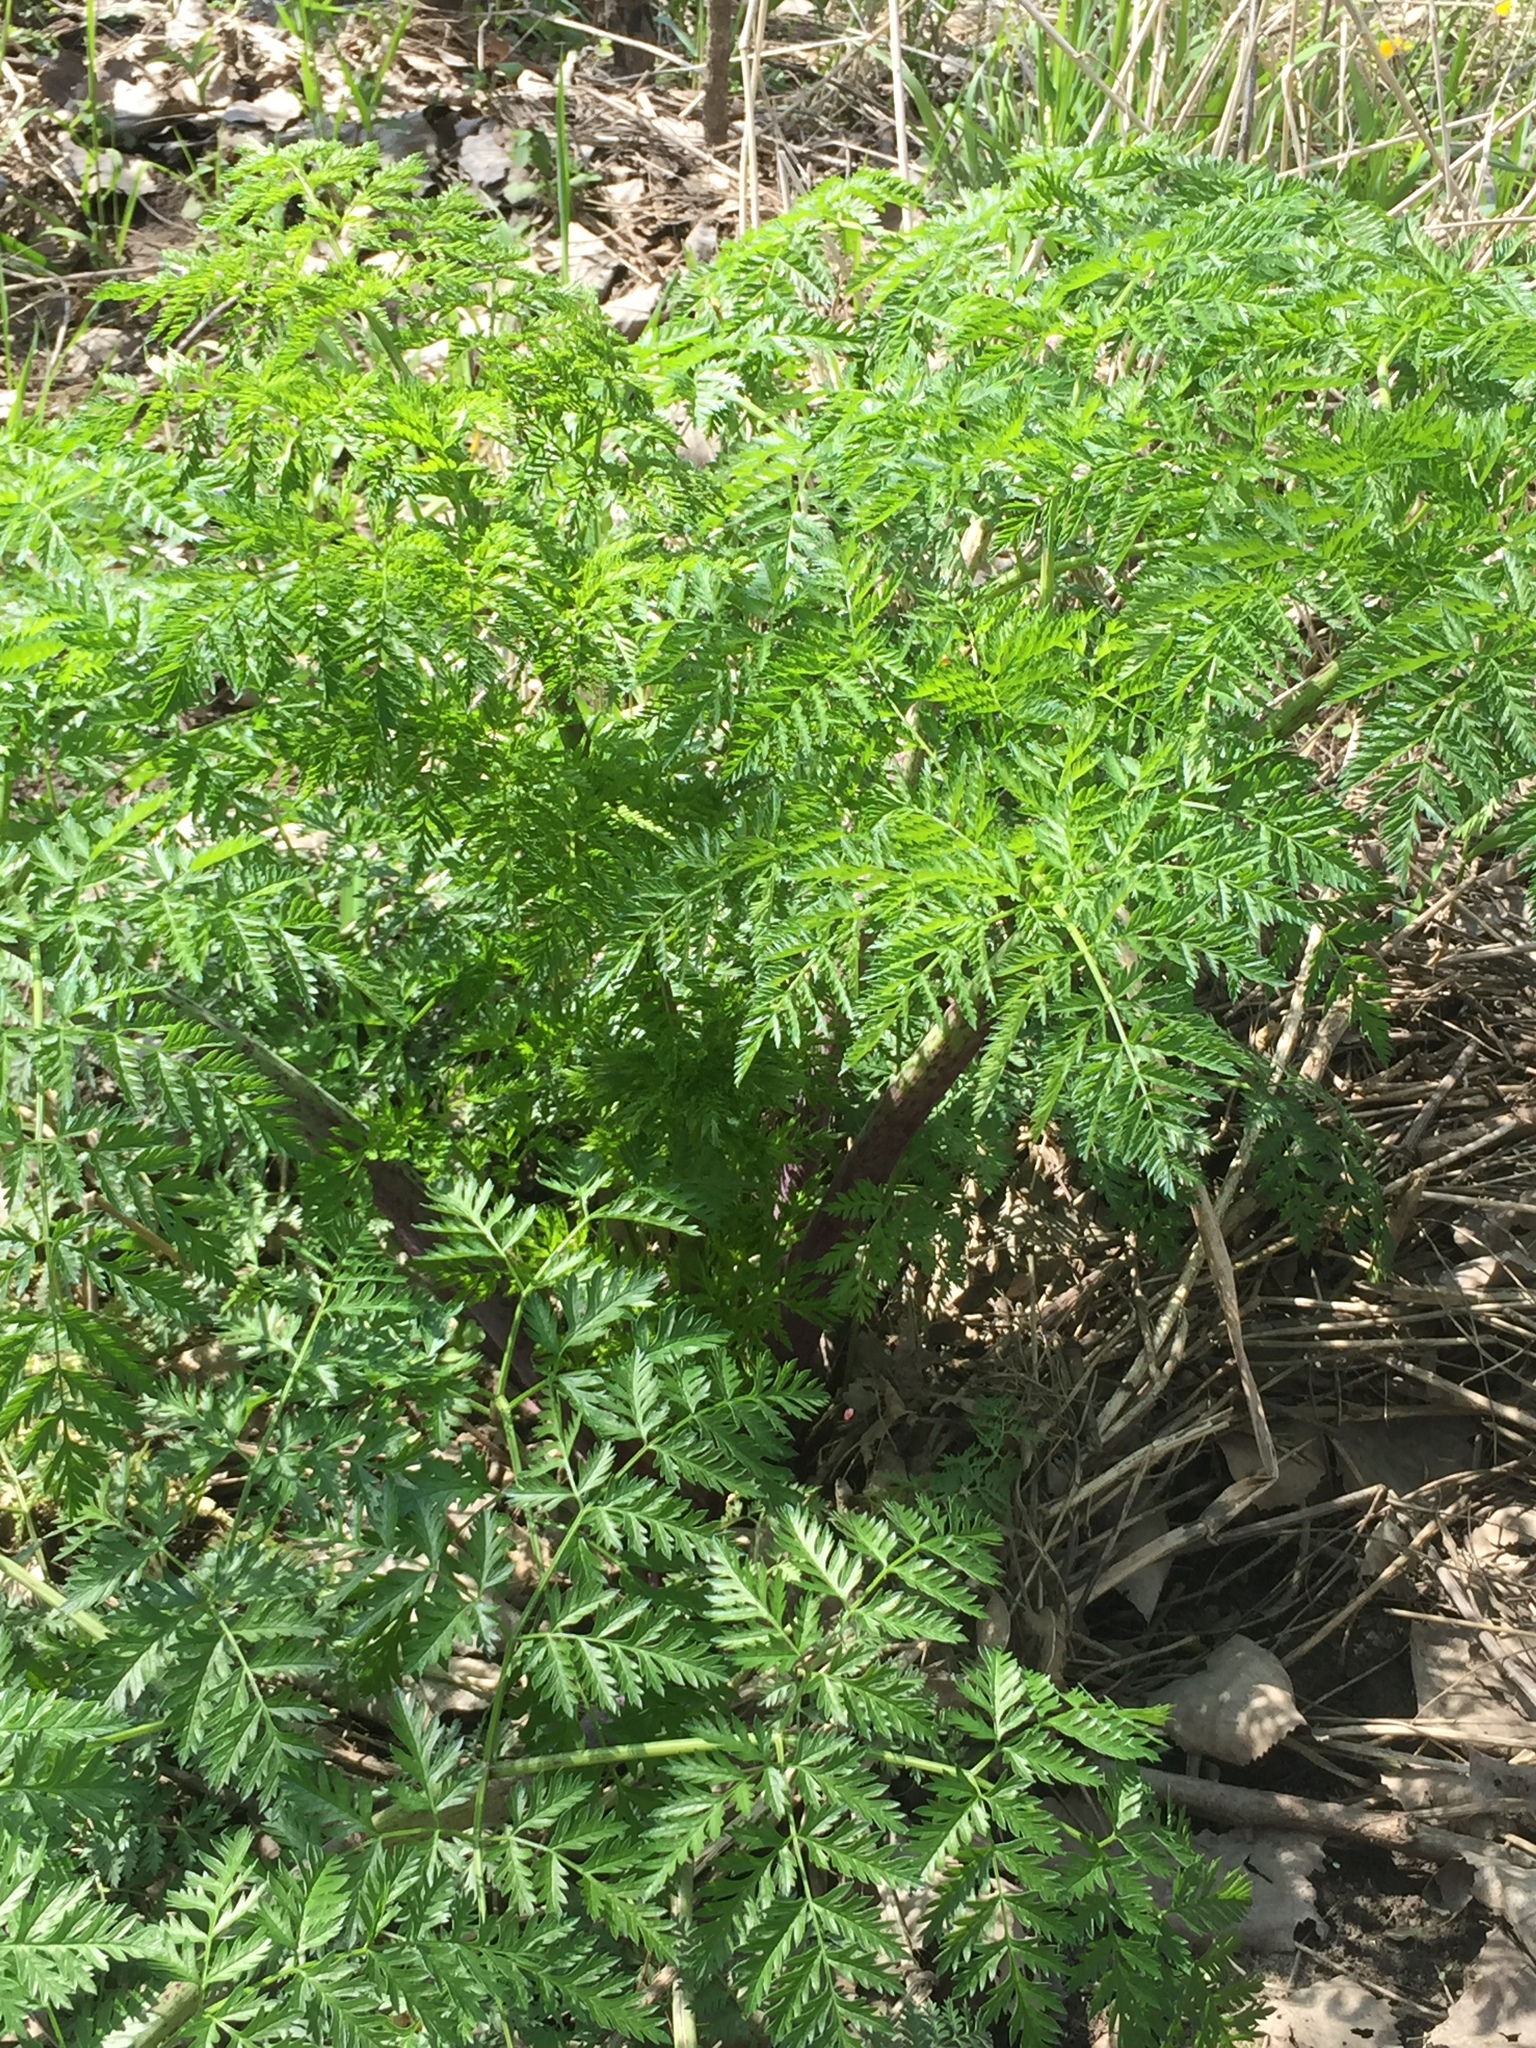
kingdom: Plantae
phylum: Tracheophyta
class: Magnoliopsida
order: Apiales
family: Apiaceae
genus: Conium
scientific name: Conium maculatum
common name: Hemlock
